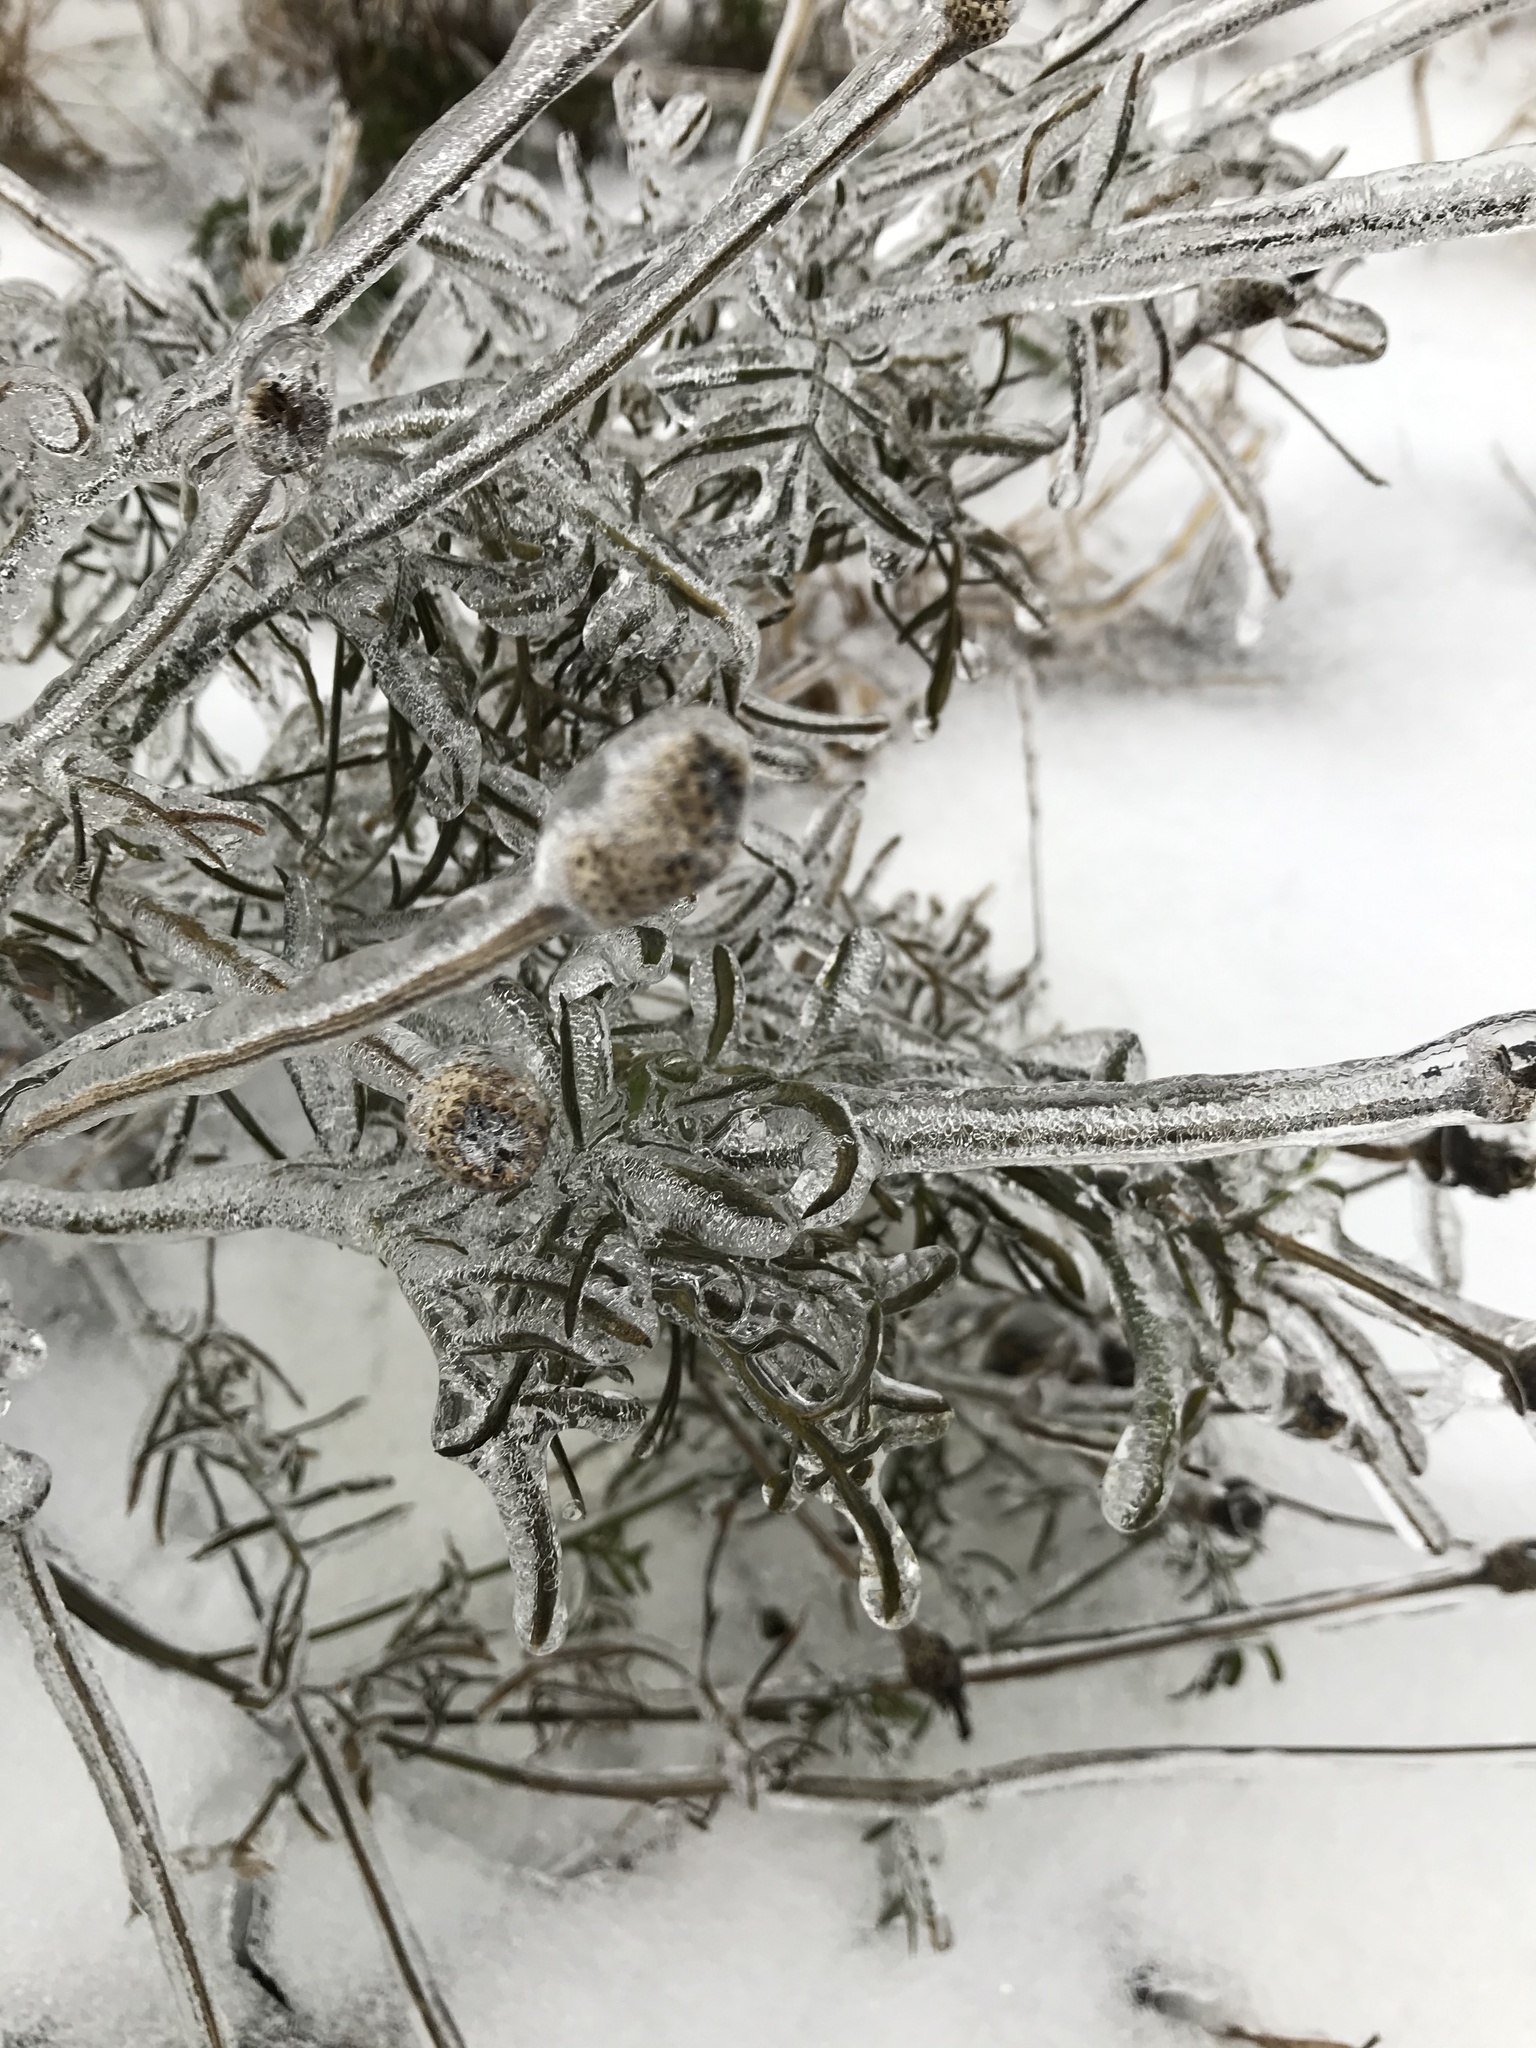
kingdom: Plantae
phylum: Tracheophyta
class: Magnoliopsida
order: Asterales
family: Asteraceae
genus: Ratibida
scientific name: Ratibida columnifera
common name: Prairie coneflower
